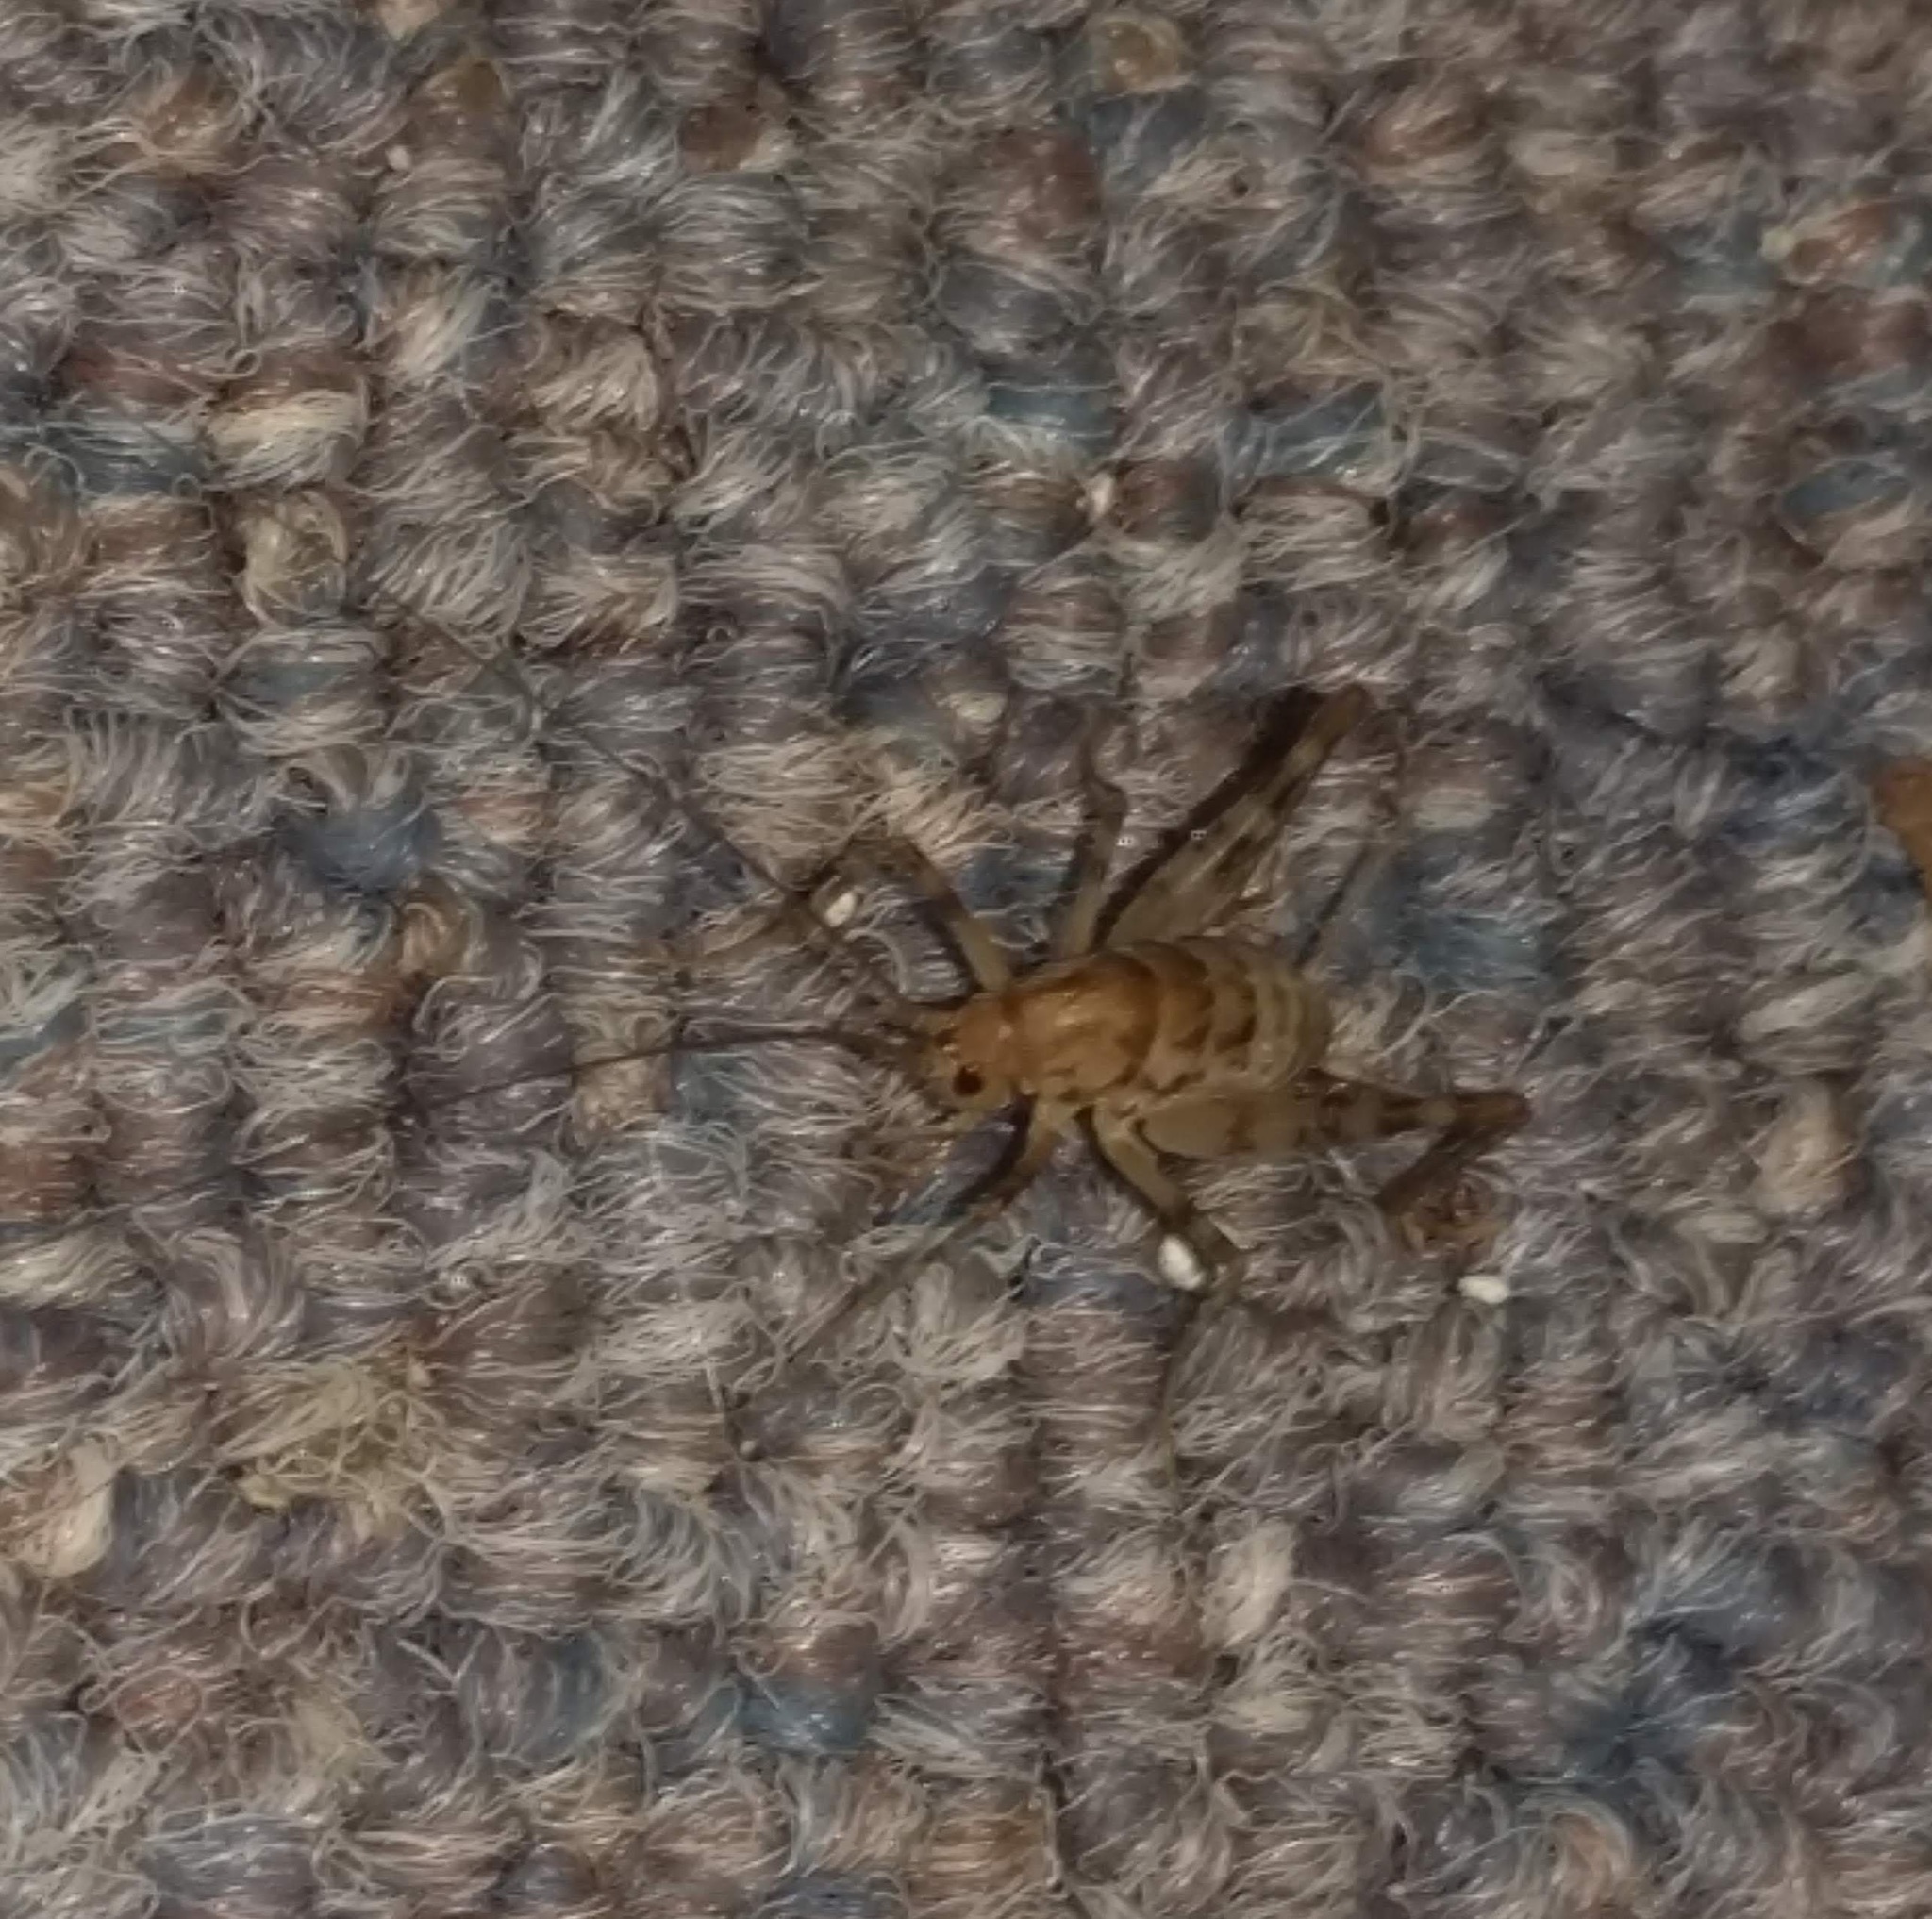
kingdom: Animalia
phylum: Arthropoda
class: Insecta
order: Orthoptera
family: Rhaphidophoridae
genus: Tachycines
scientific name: Tachycines asynamorus
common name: Greenhouse camel cricket
